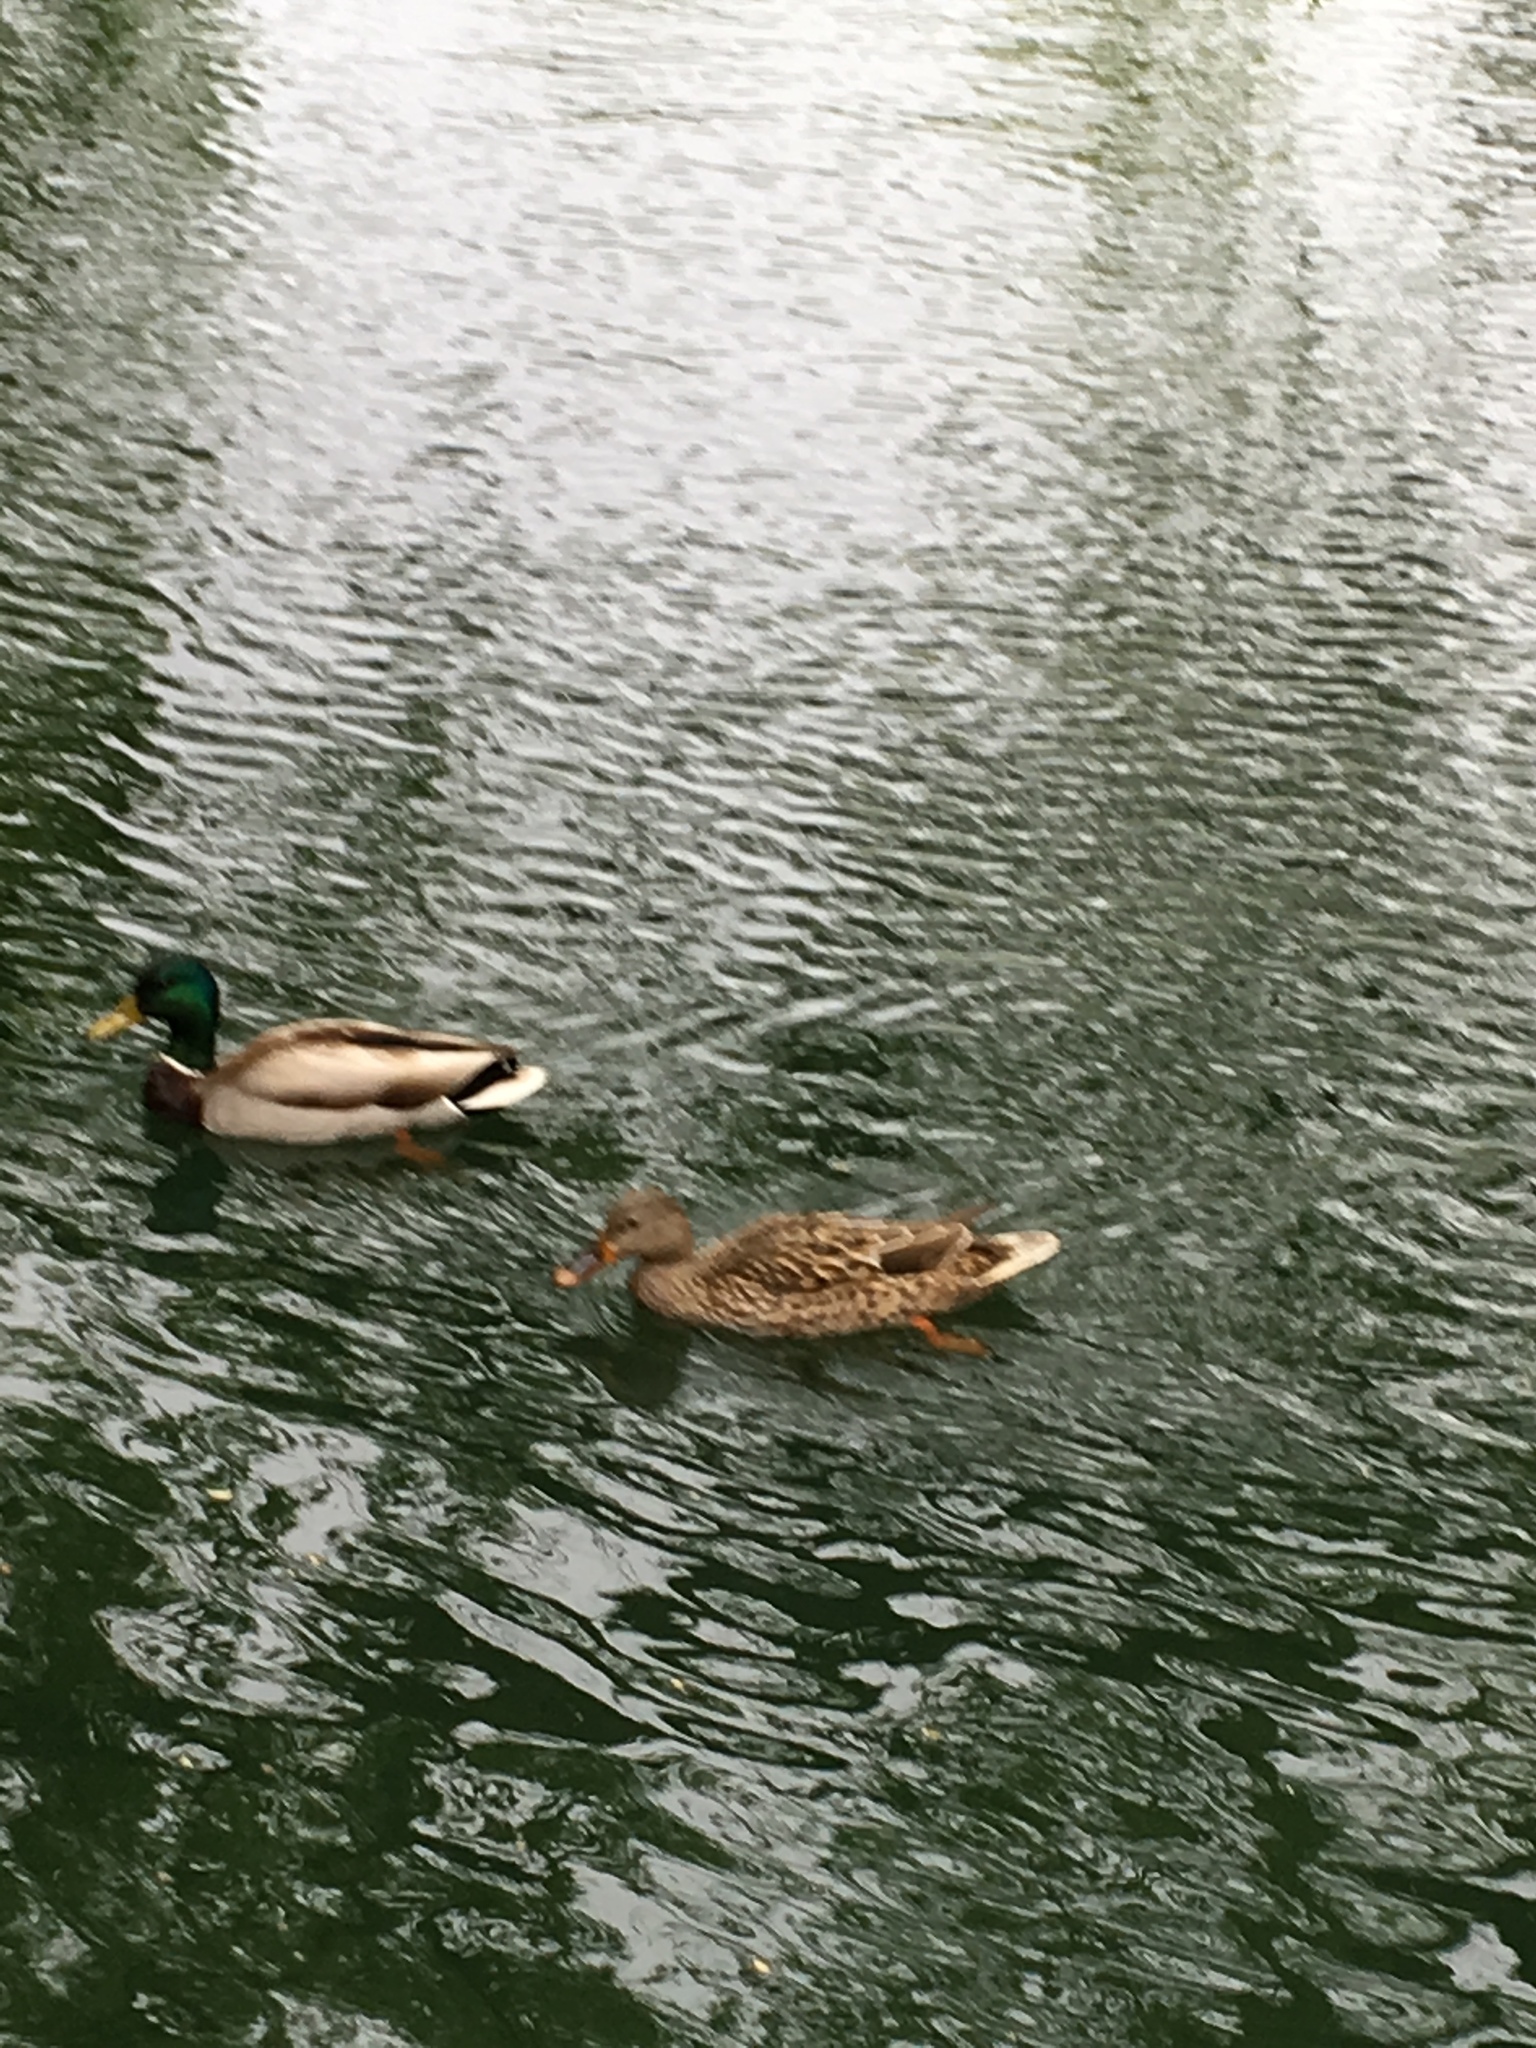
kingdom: Animalia
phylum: Chordata
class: Aves
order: Anseriformes
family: Anatidae
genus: Anas
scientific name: Anas platyrhynchos
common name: Mallard
